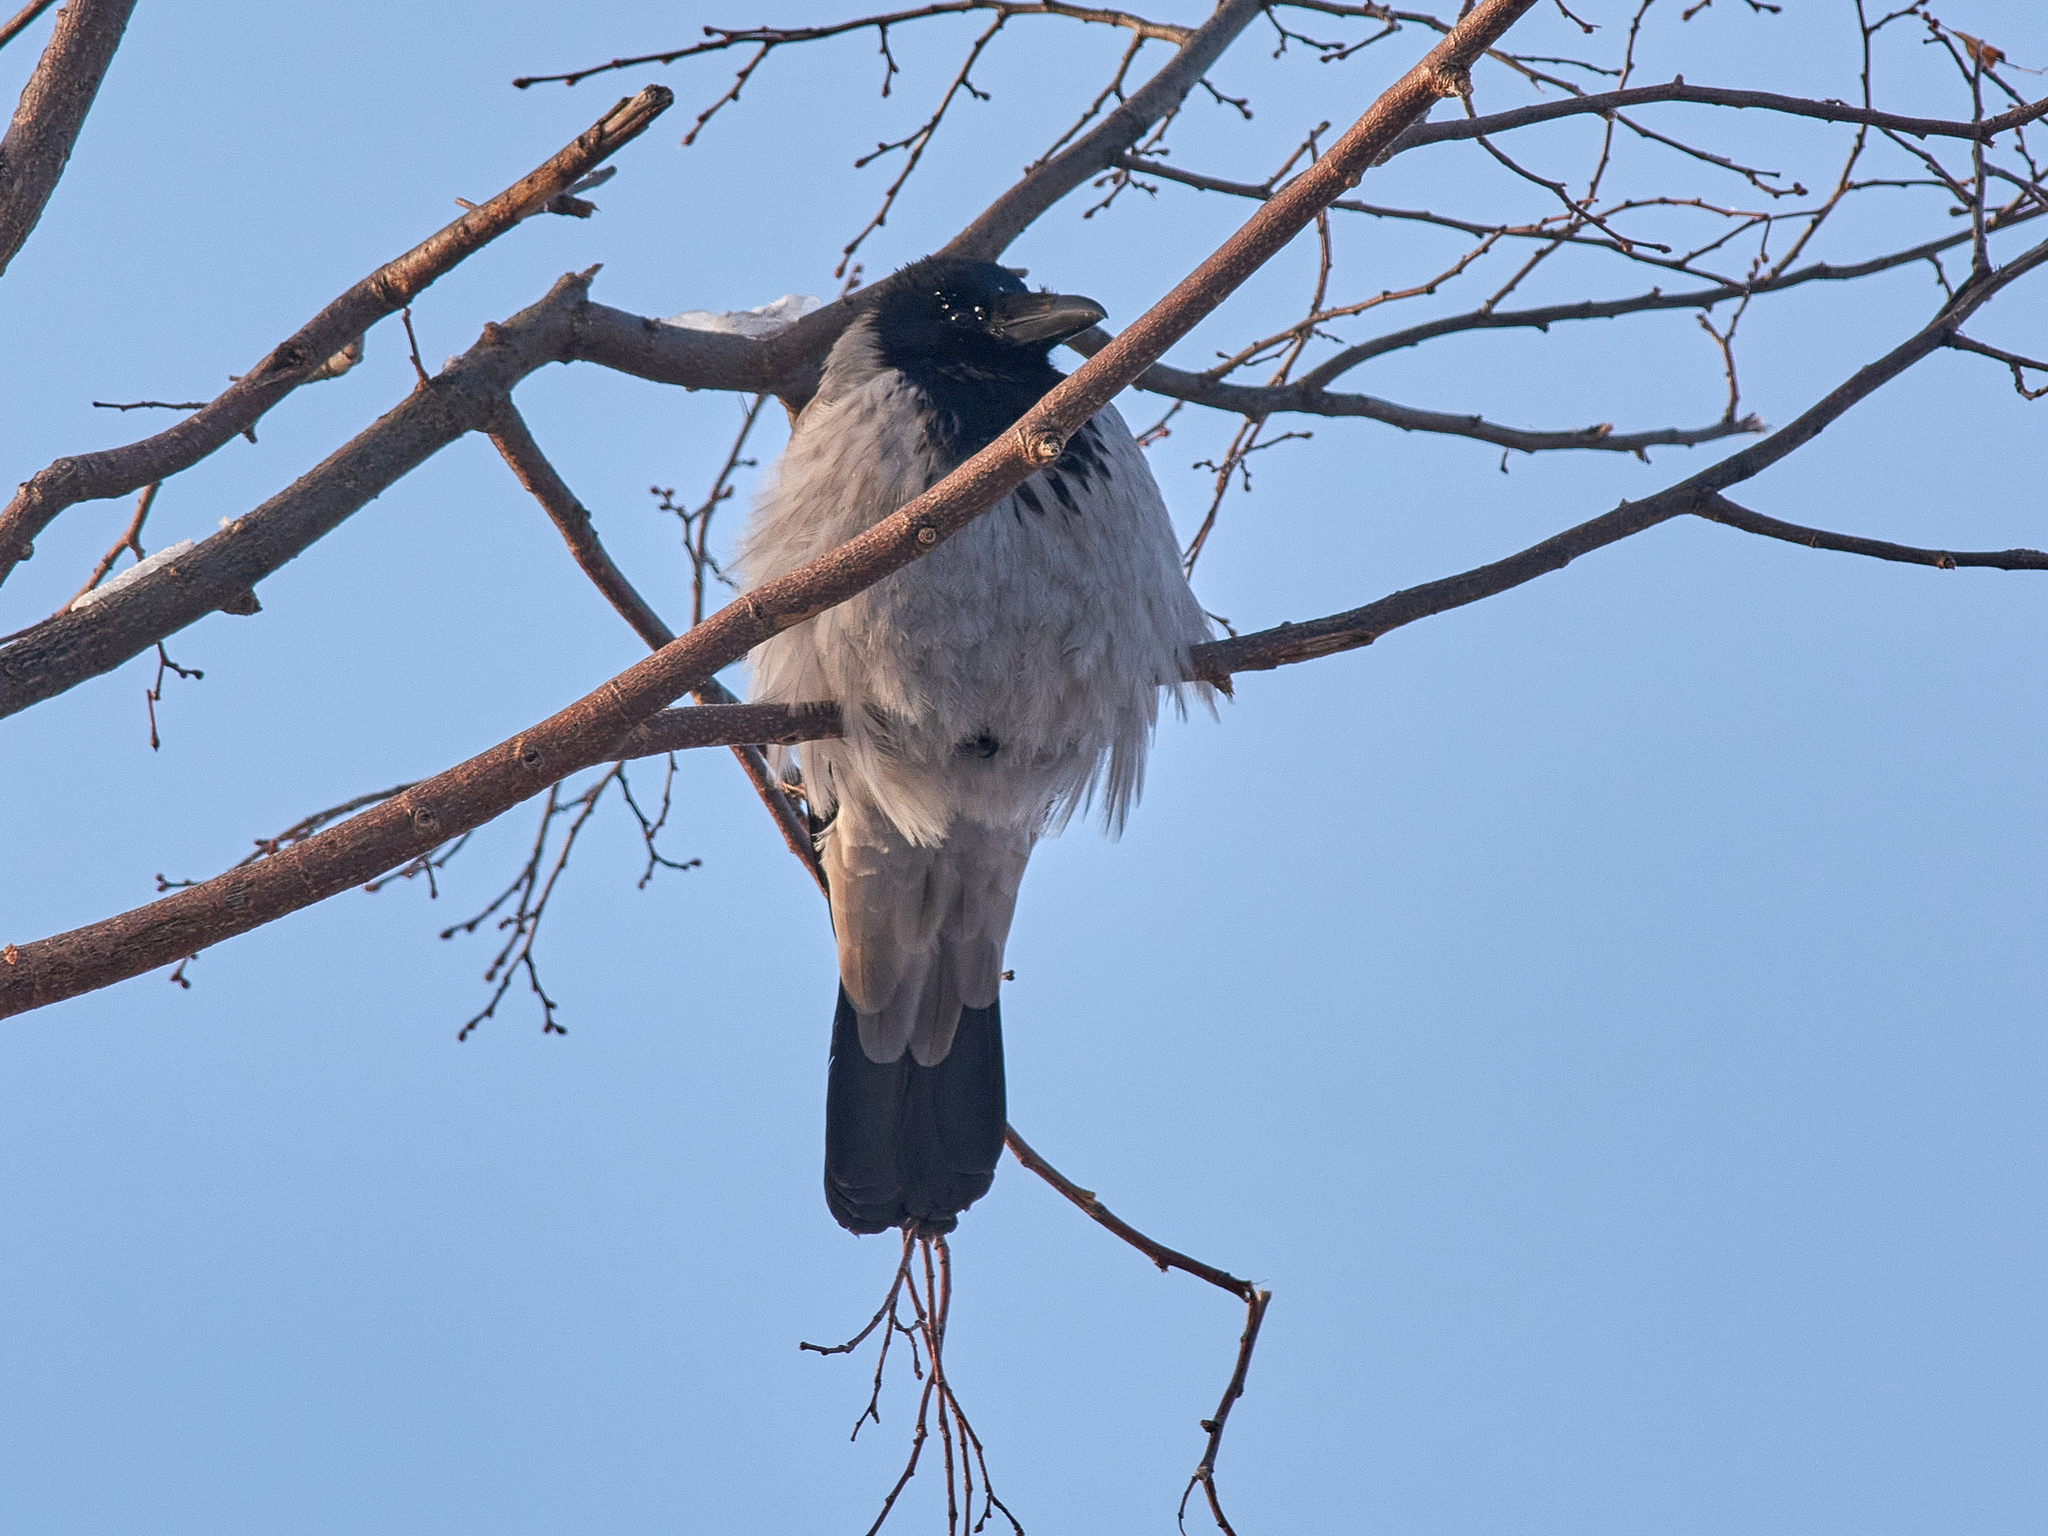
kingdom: Animalia
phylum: Chordata
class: Aves
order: Passeriformes
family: Corvidae
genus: Corvus
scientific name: Corvus cornix
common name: Hooded crow
